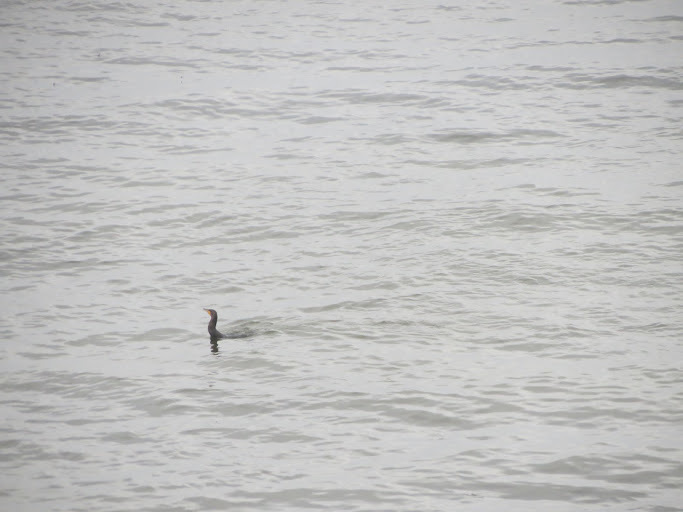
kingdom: Animalia
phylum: Chordata
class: Aves
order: Suliformes
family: Phalacrocoracidae
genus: Phalacrocorax
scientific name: Phalacrocorax auritus
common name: Double-crested cormorant
